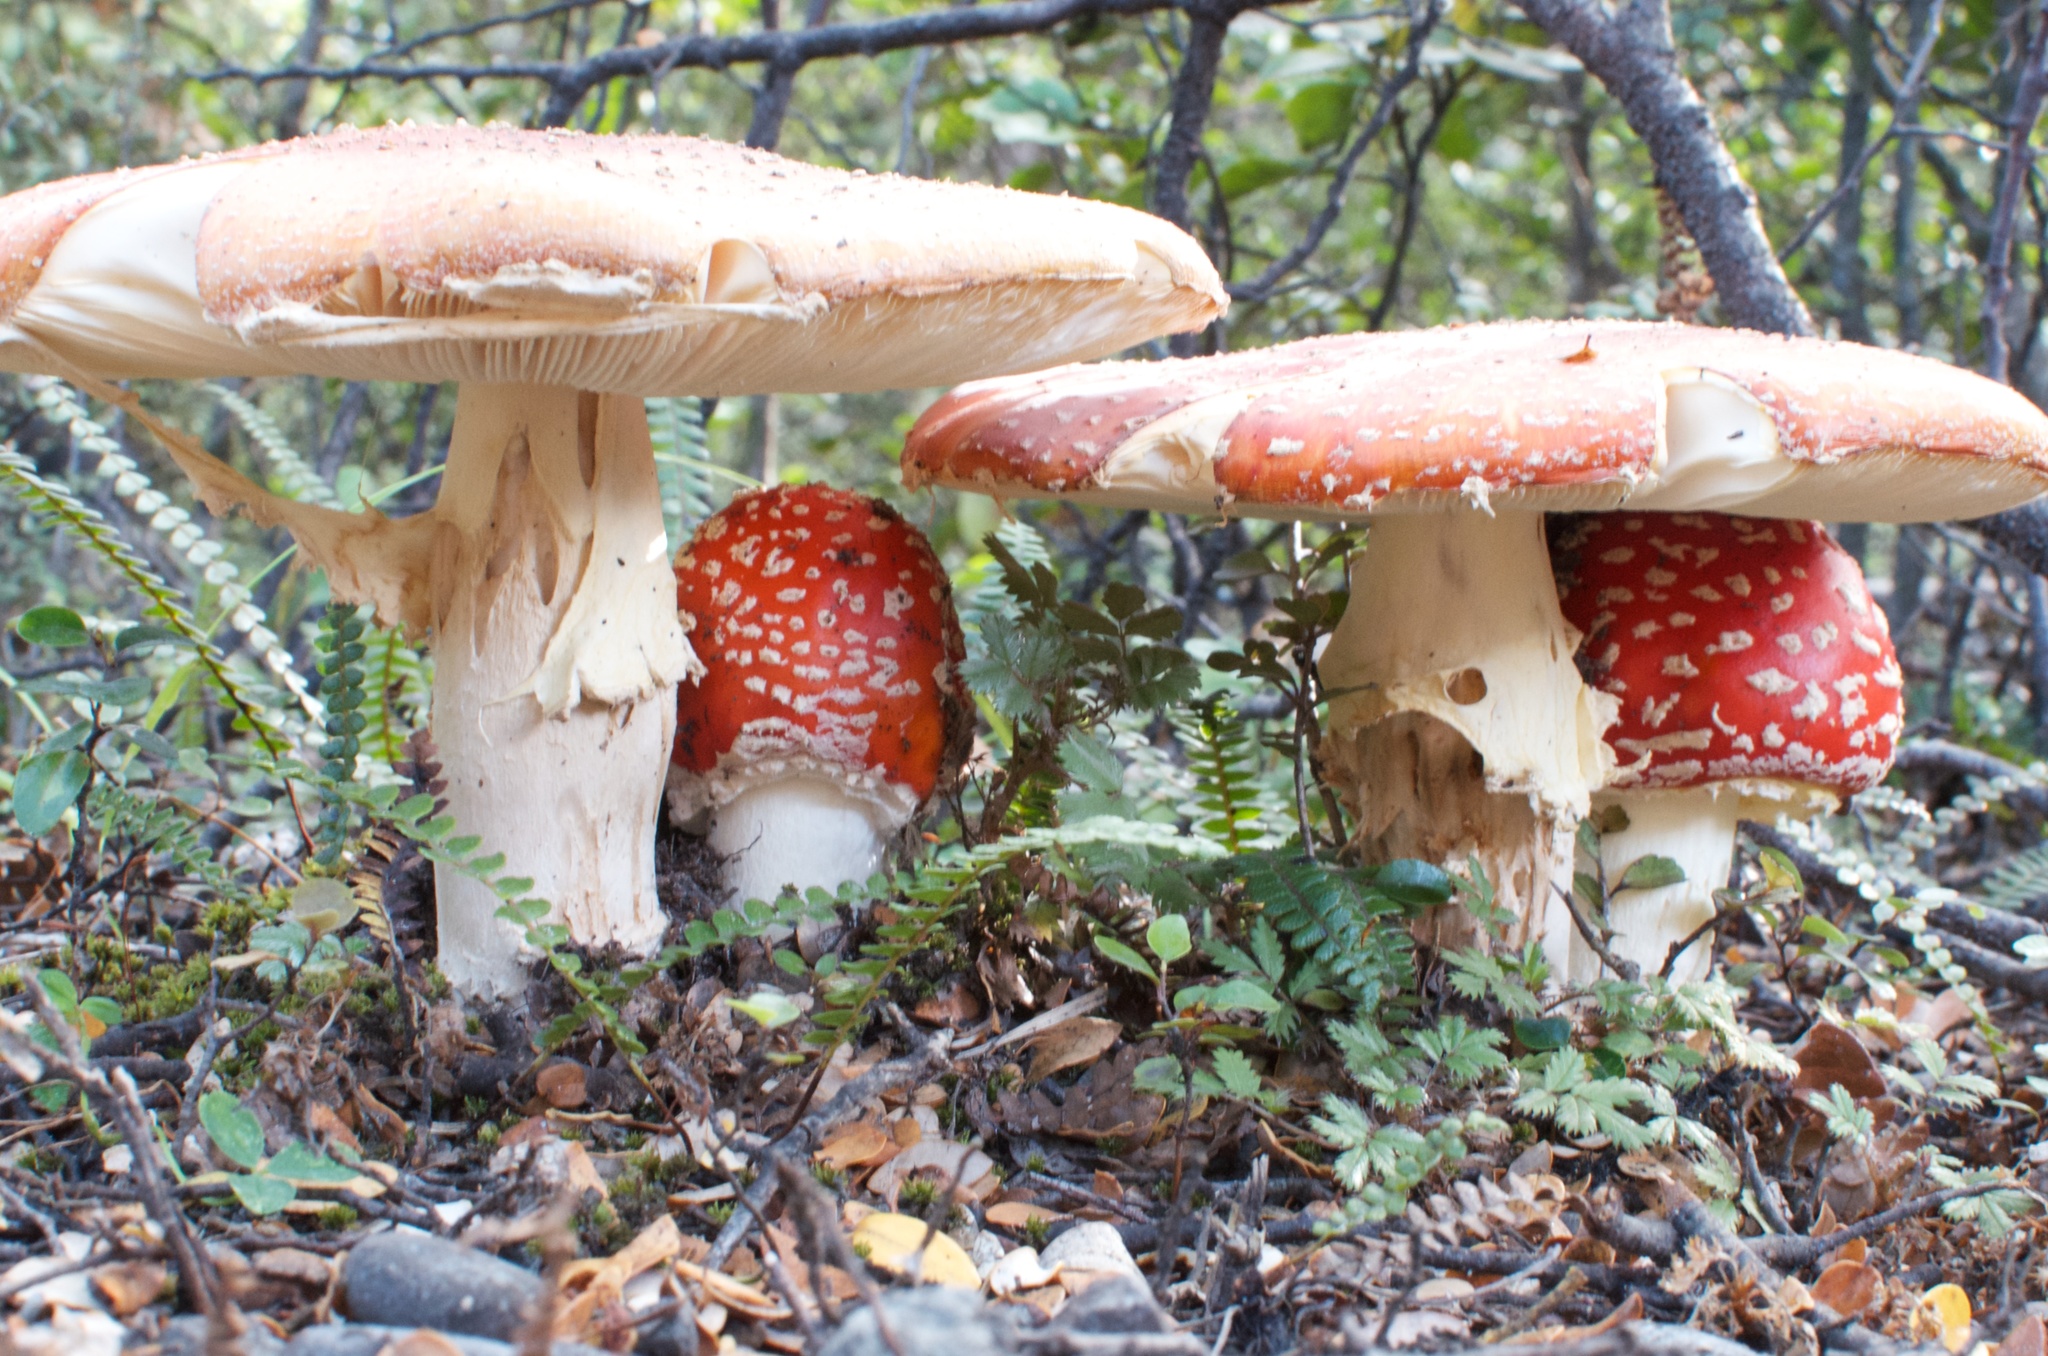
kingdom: Fungi
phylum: Basidiomycota
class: Agaricomycetes
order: Agaricales
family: Amanitaceae
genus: Amanita
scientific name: Amanita muscaria
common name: Fly agaric
